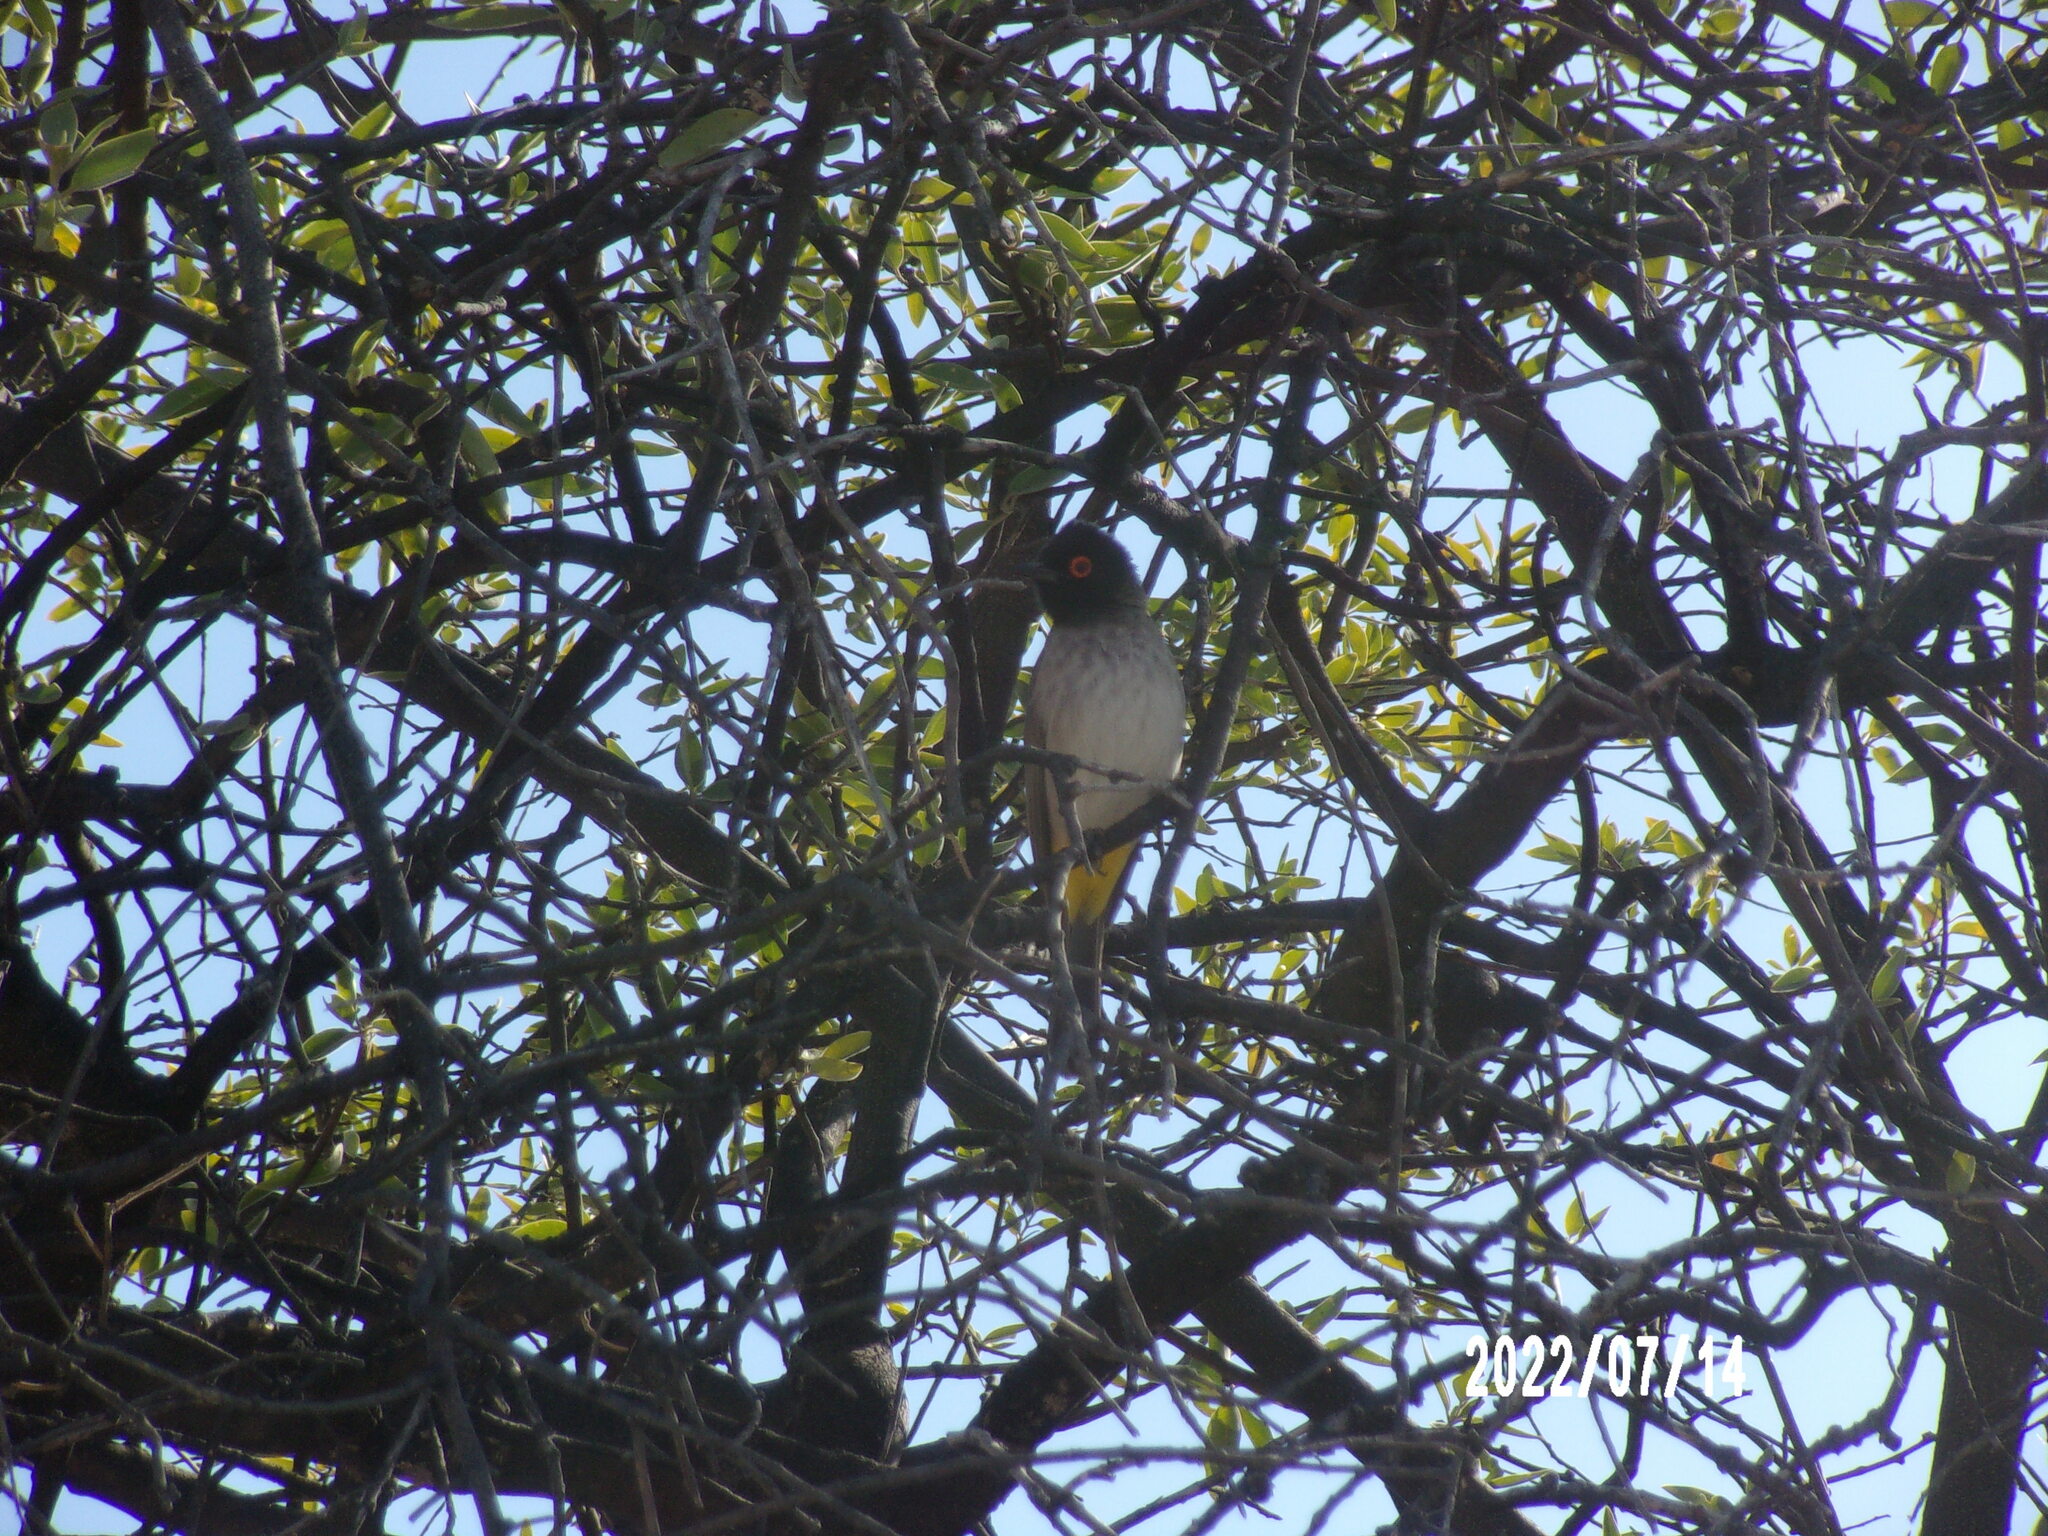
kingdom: Animalia
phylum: Chordata
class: Aves
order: Passeriformes
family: Pycnonotidae
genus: Pycnonotus
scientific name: Pycnonotus nigricans
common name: African red-eyed bulbul
